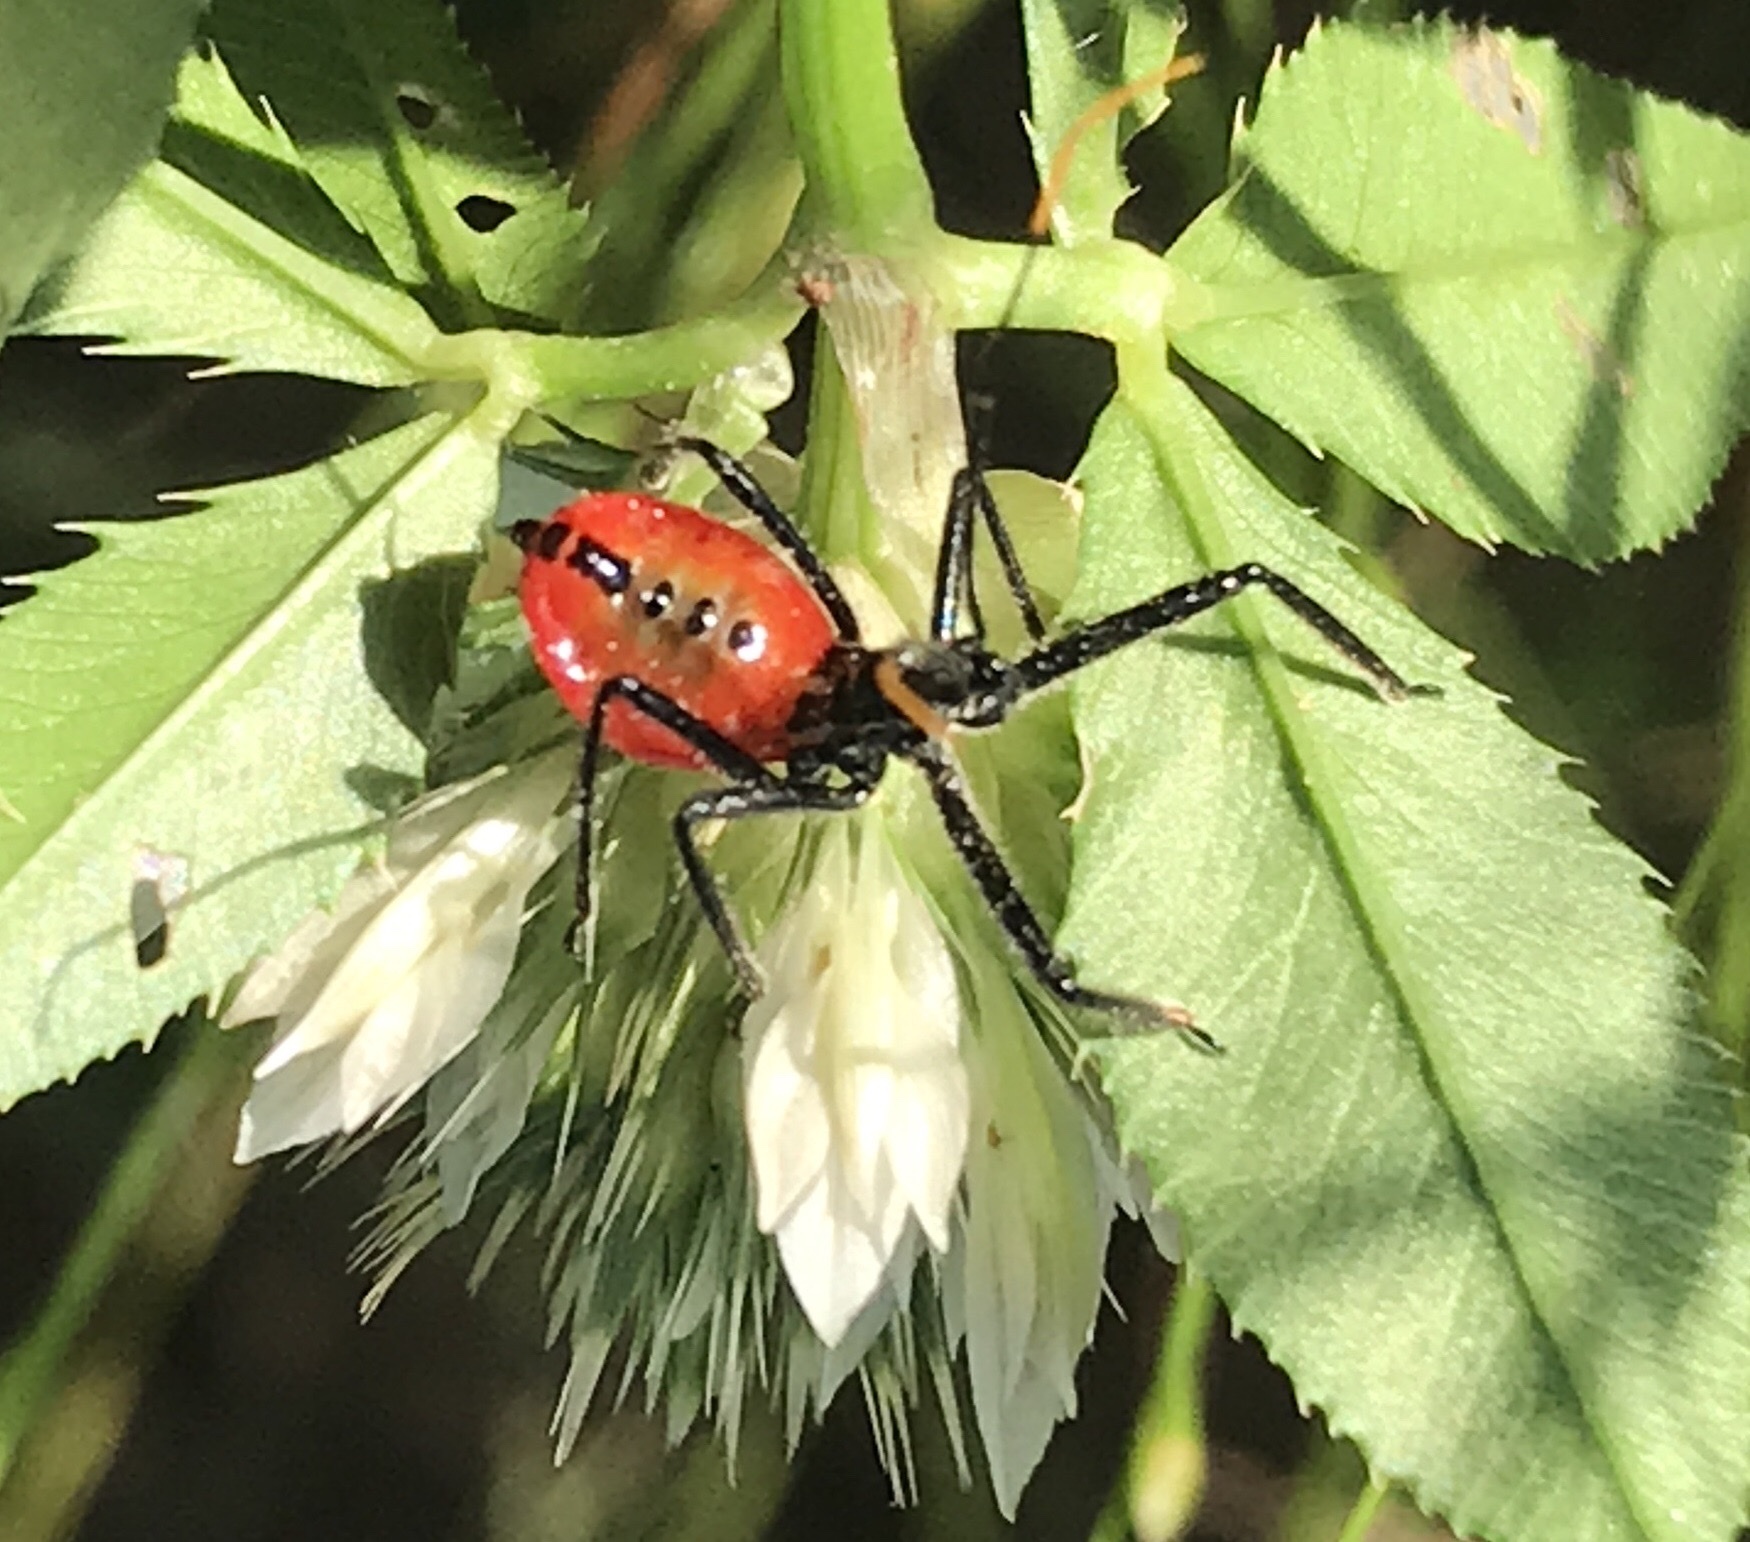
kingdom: Animalia
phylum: Arthropoda
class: Insecta
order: Hemiptera
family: Reduviidae
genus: Arilus
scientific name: Arilus cristatus
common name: North american wheel bug
